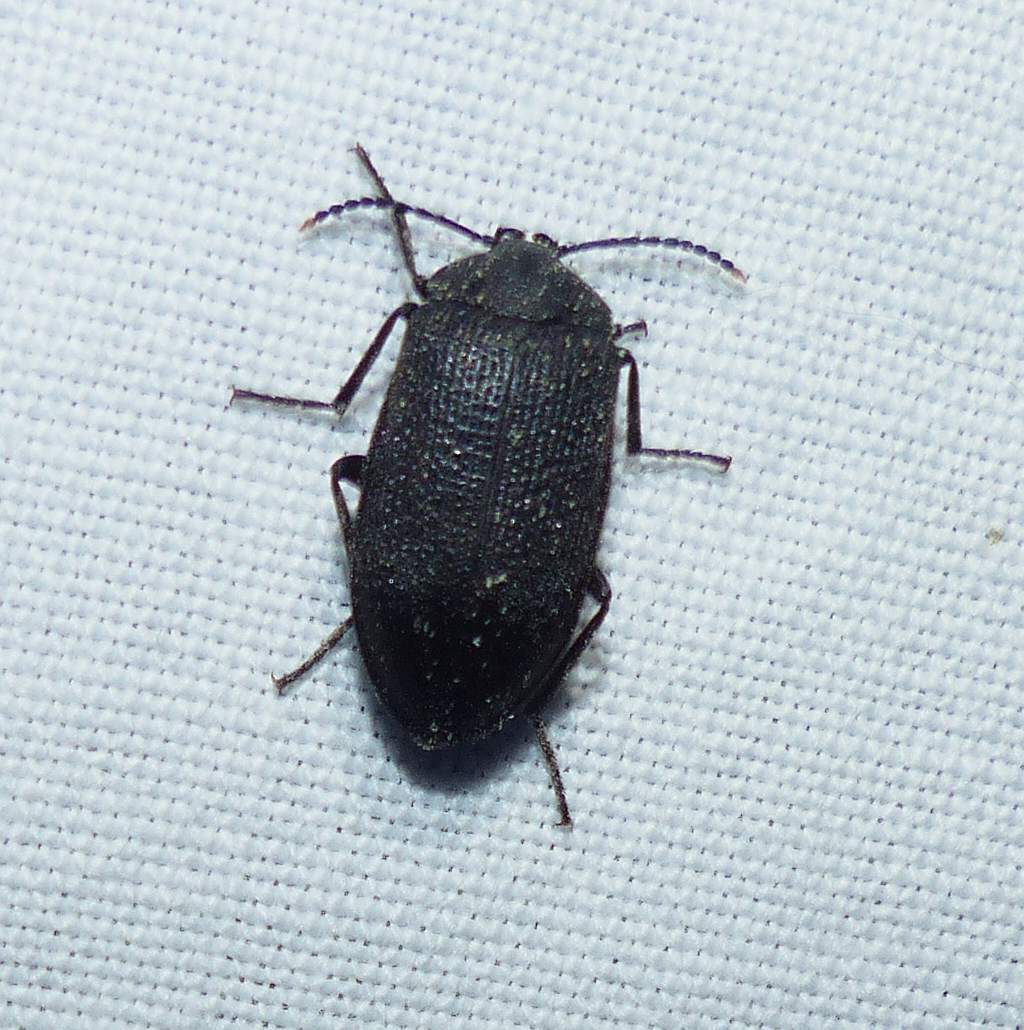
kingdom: Animalia
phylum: Arthropoda
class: Insecta
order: Coleoptera
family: Tetratomidae
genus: Penthe
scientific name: Penthe pimelia
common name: Velvety bark beetle
